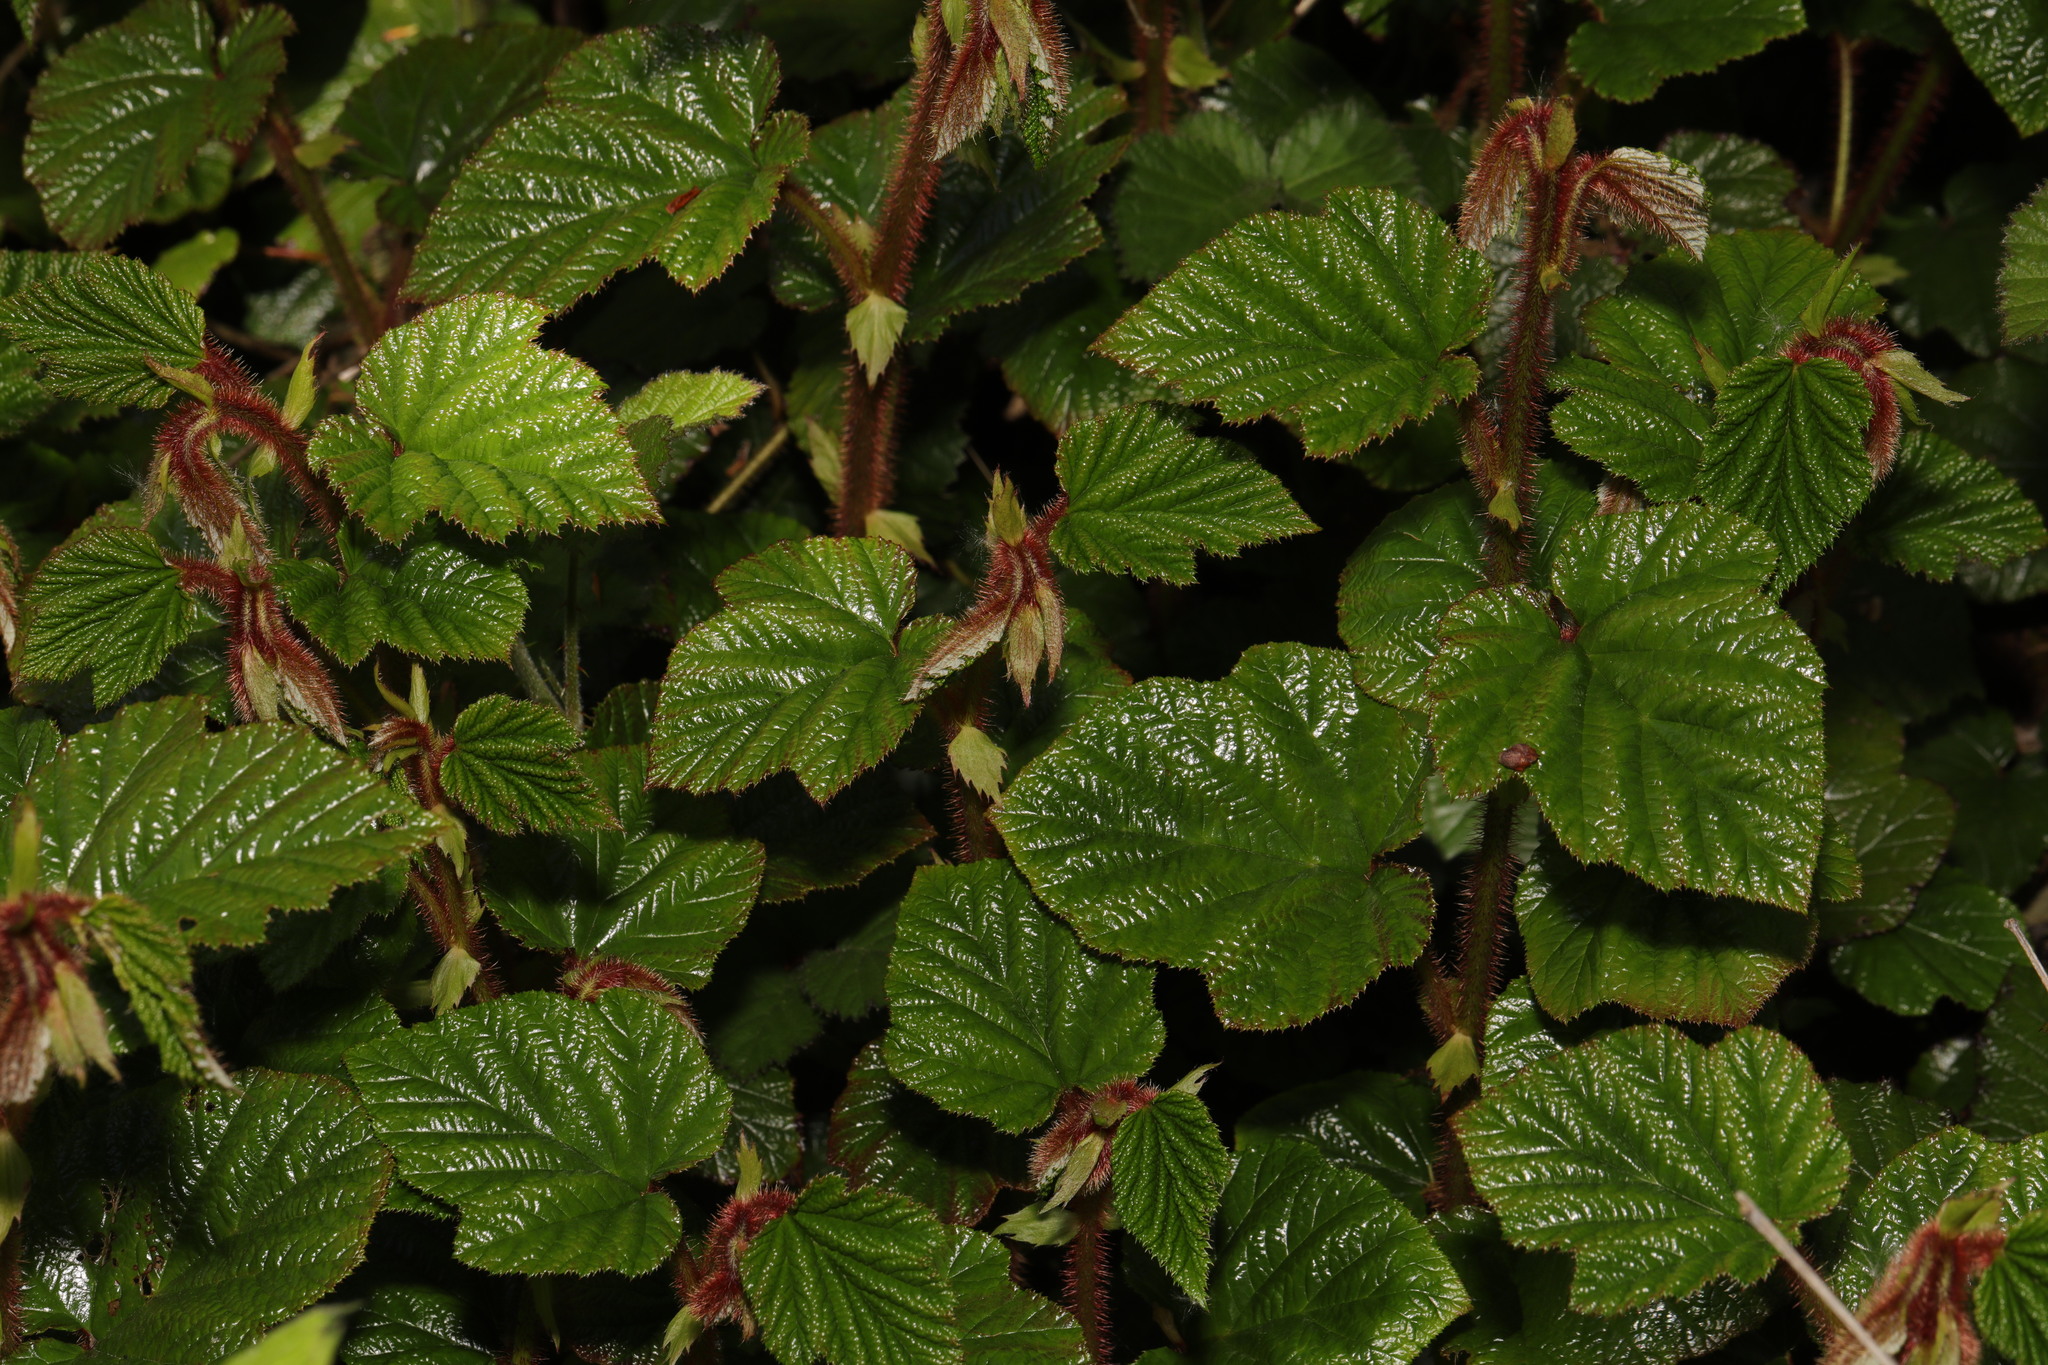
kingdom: Plantae
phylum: Tracheophyta
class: Magnoliopsida
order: Rosales
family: Rosaceae
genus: Rubus
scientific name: Rubus tricolor
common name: Chinese bramble
